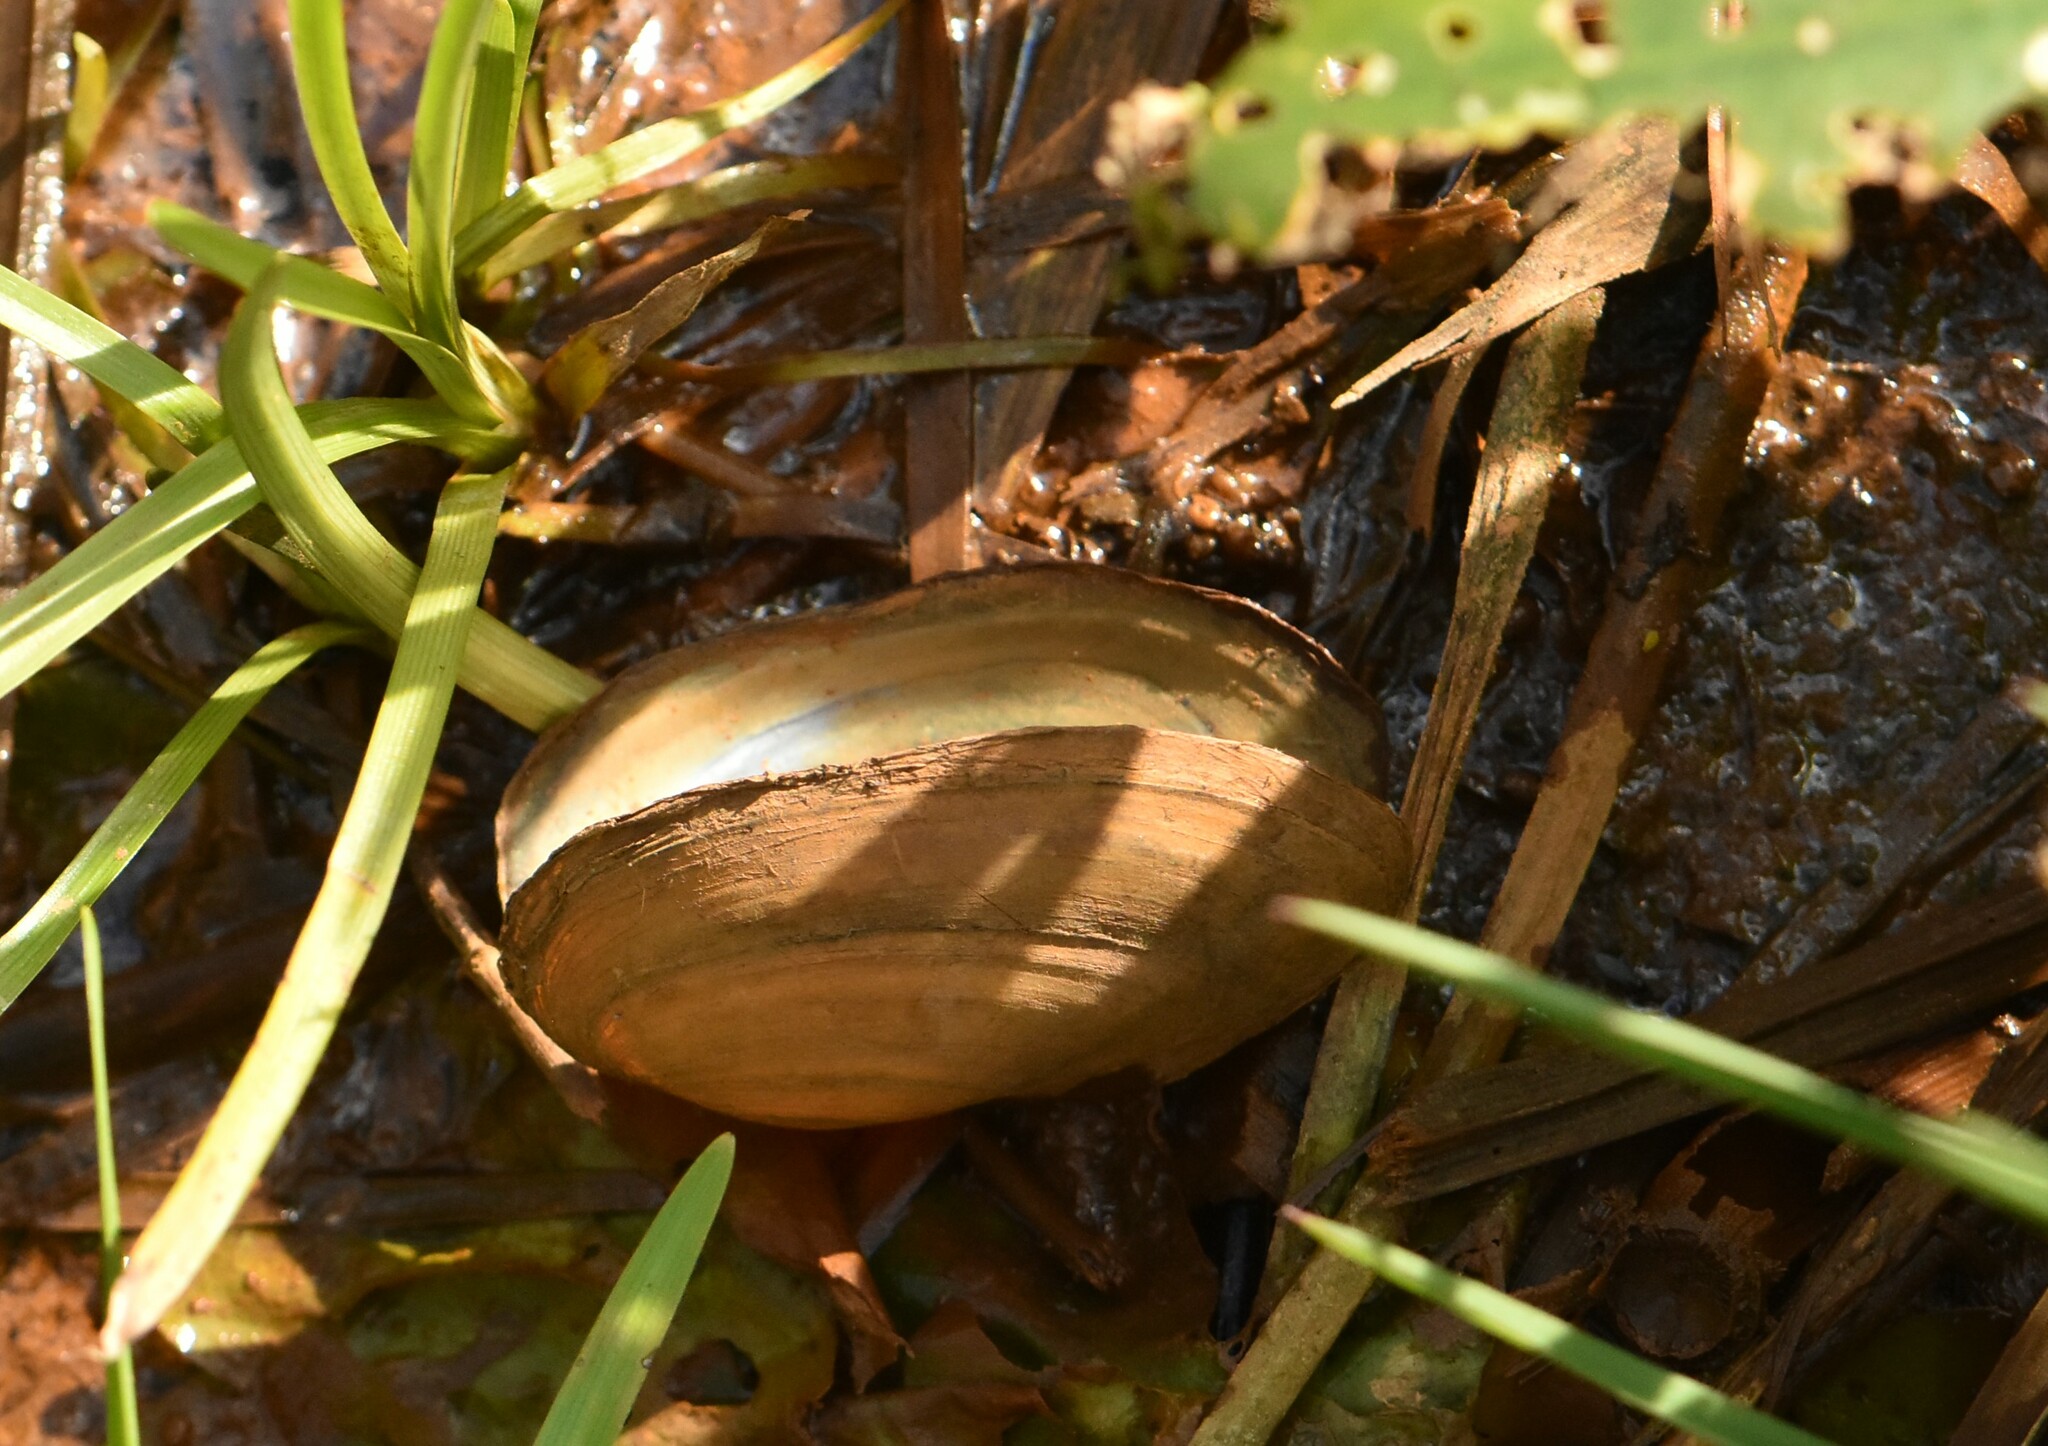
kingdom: Animalia
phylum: Mollusca
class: Bivalvia
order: Unionida
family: Unionidae
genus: Anodonta
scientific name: Anodonta cygnea
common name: Swan mussel
